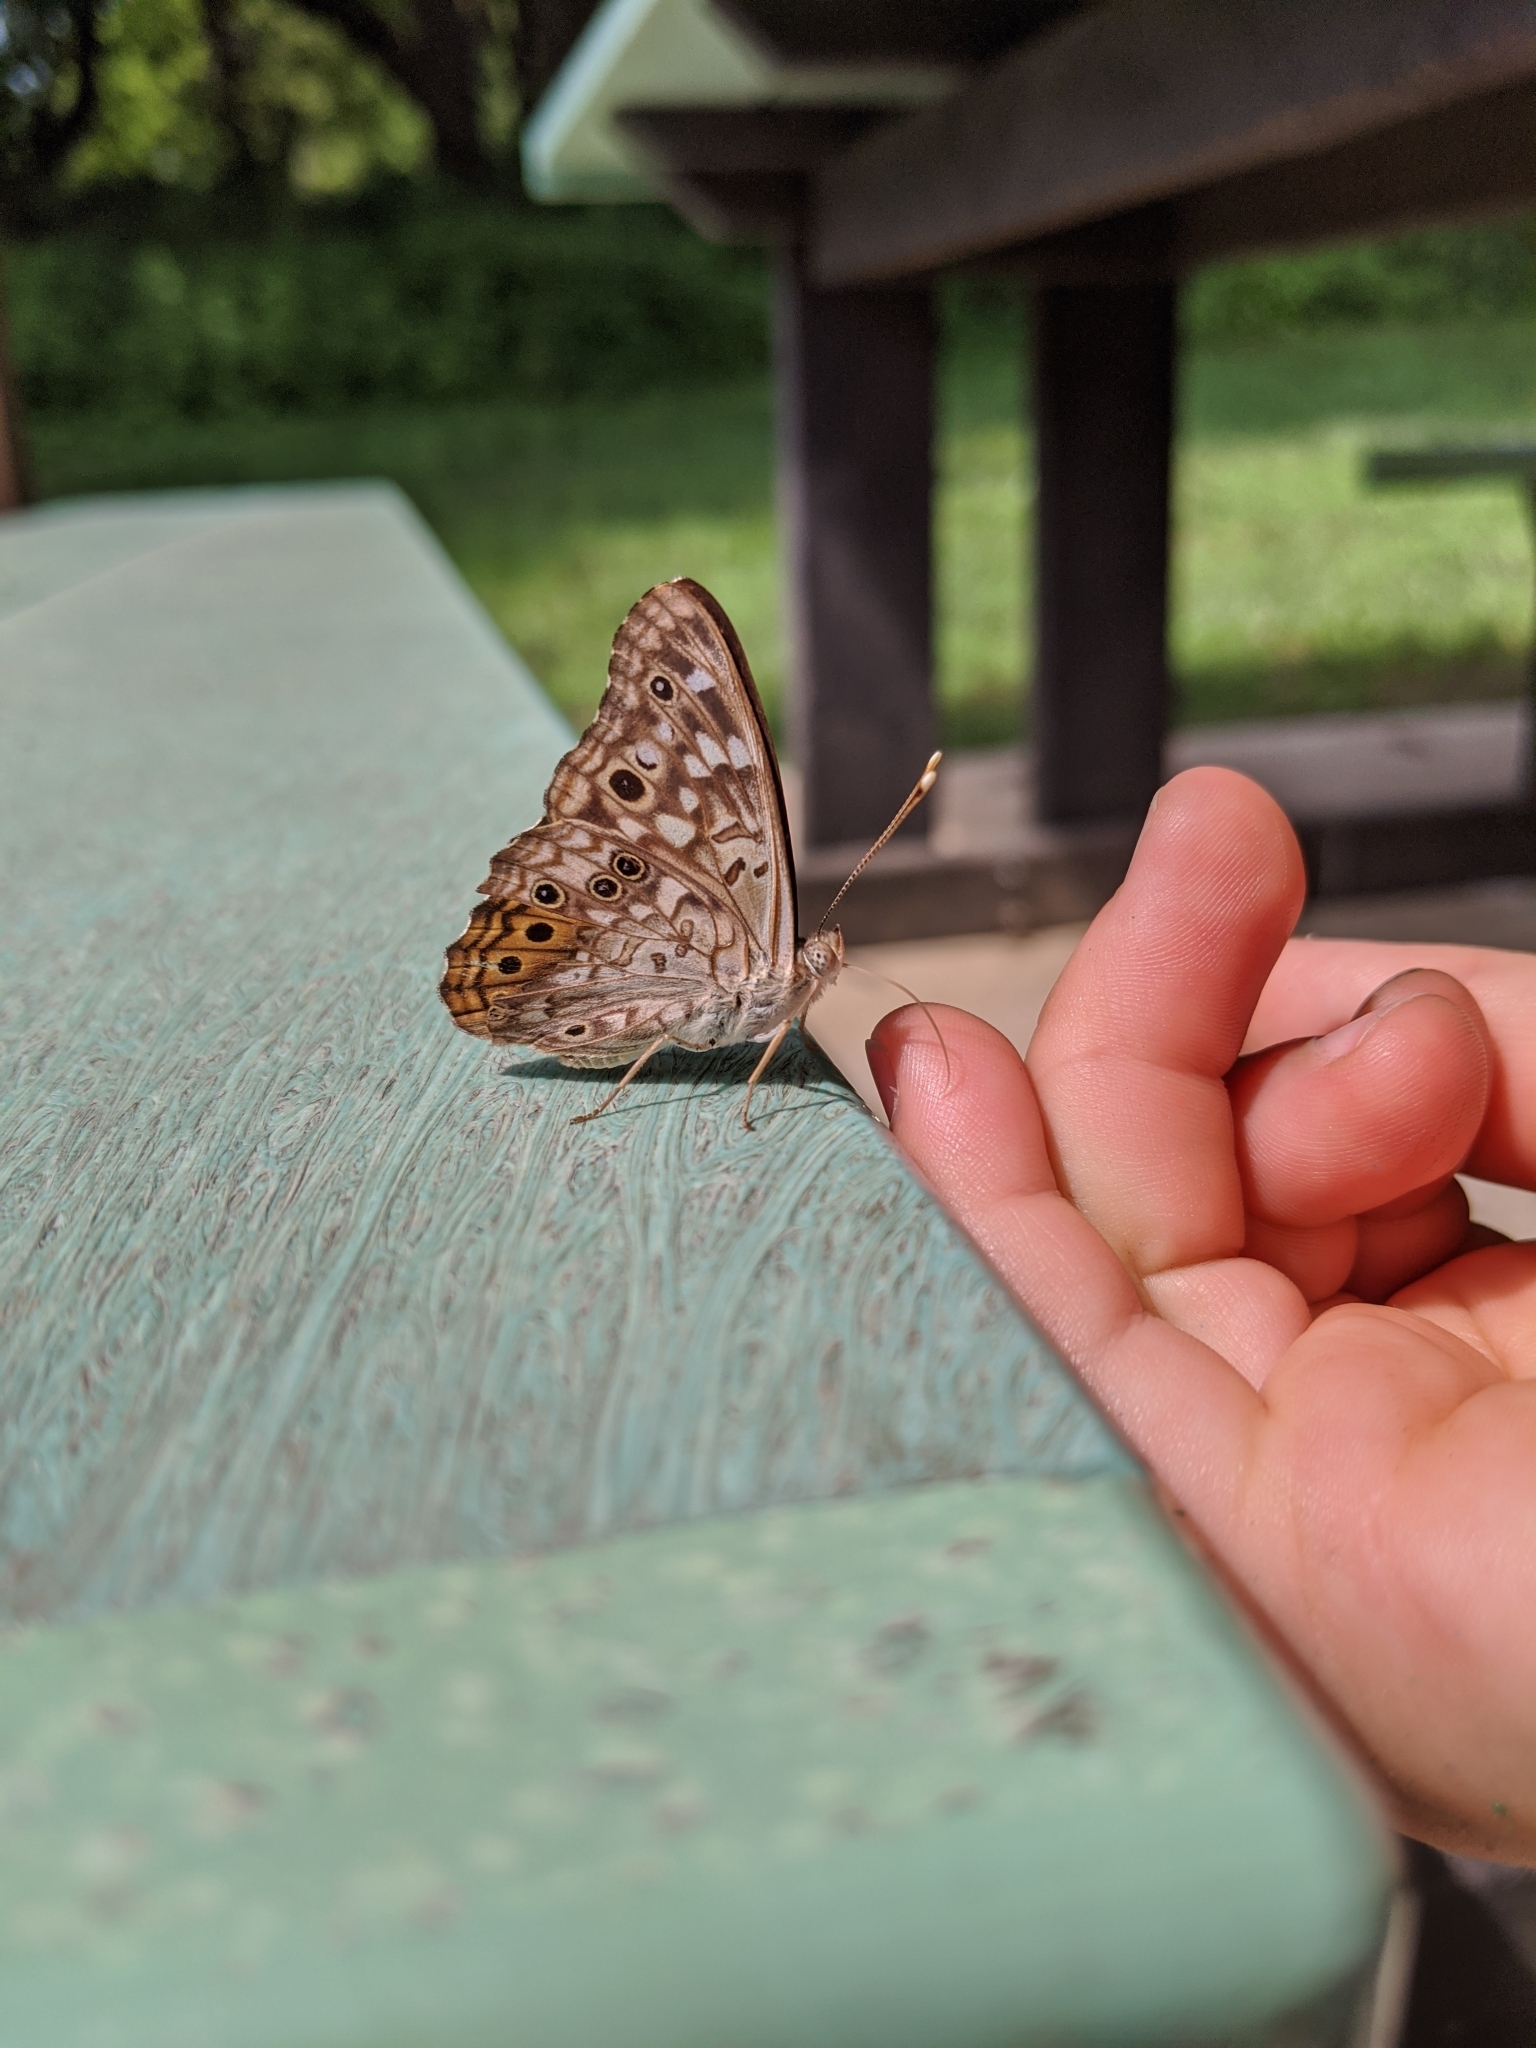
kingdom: Animalia
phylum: Arthropoda
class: Insecta
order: Lepidoptera
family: Nymphalidae
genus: Asterocampa
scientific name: Asterocampa celtis
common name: Hackberry emperor
